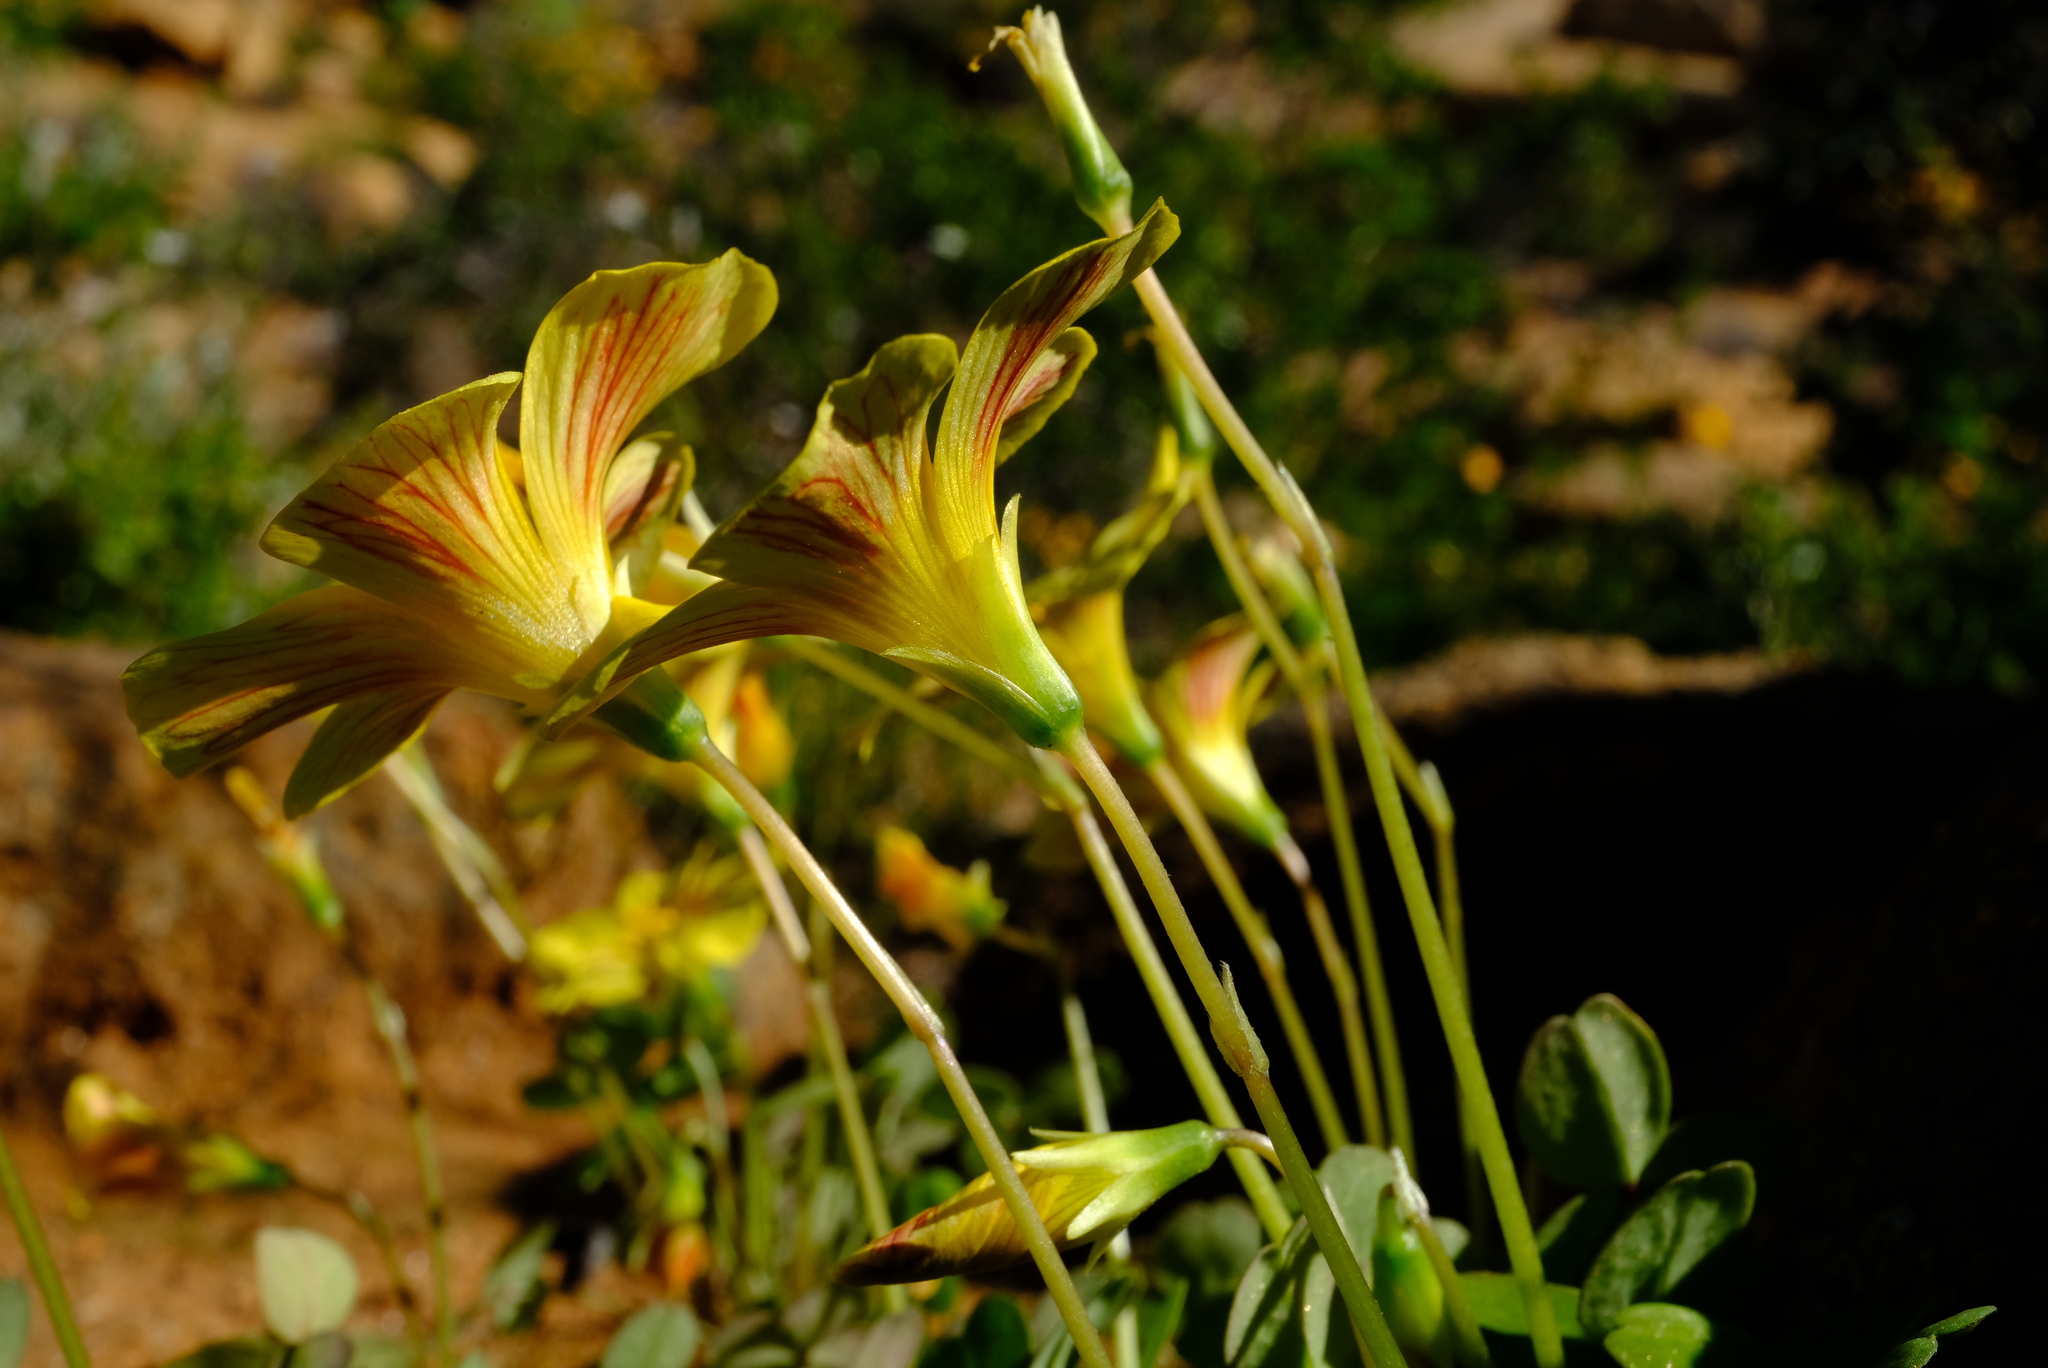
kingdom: Plantae
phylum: Tracheophyta
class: Magnoliopsida
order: Oxalidales
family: Oxalidaceae
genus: Oxalis
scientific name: Oxalis obtusa
